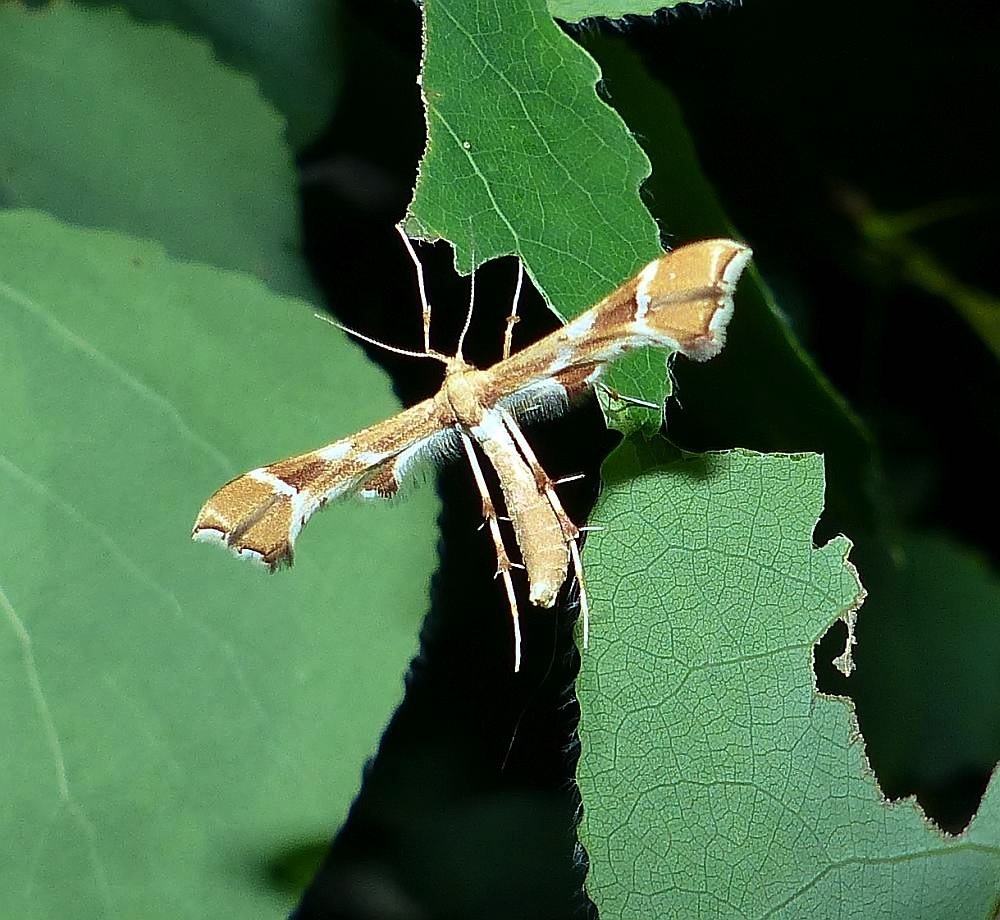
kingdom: Animalia
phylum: Arthropoda
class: Insecta
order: Lepidoptera
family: Pterophoridae
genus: Cnaemidophorus
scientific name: Cnaemidophorus rhododactyla
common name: Rose plume
